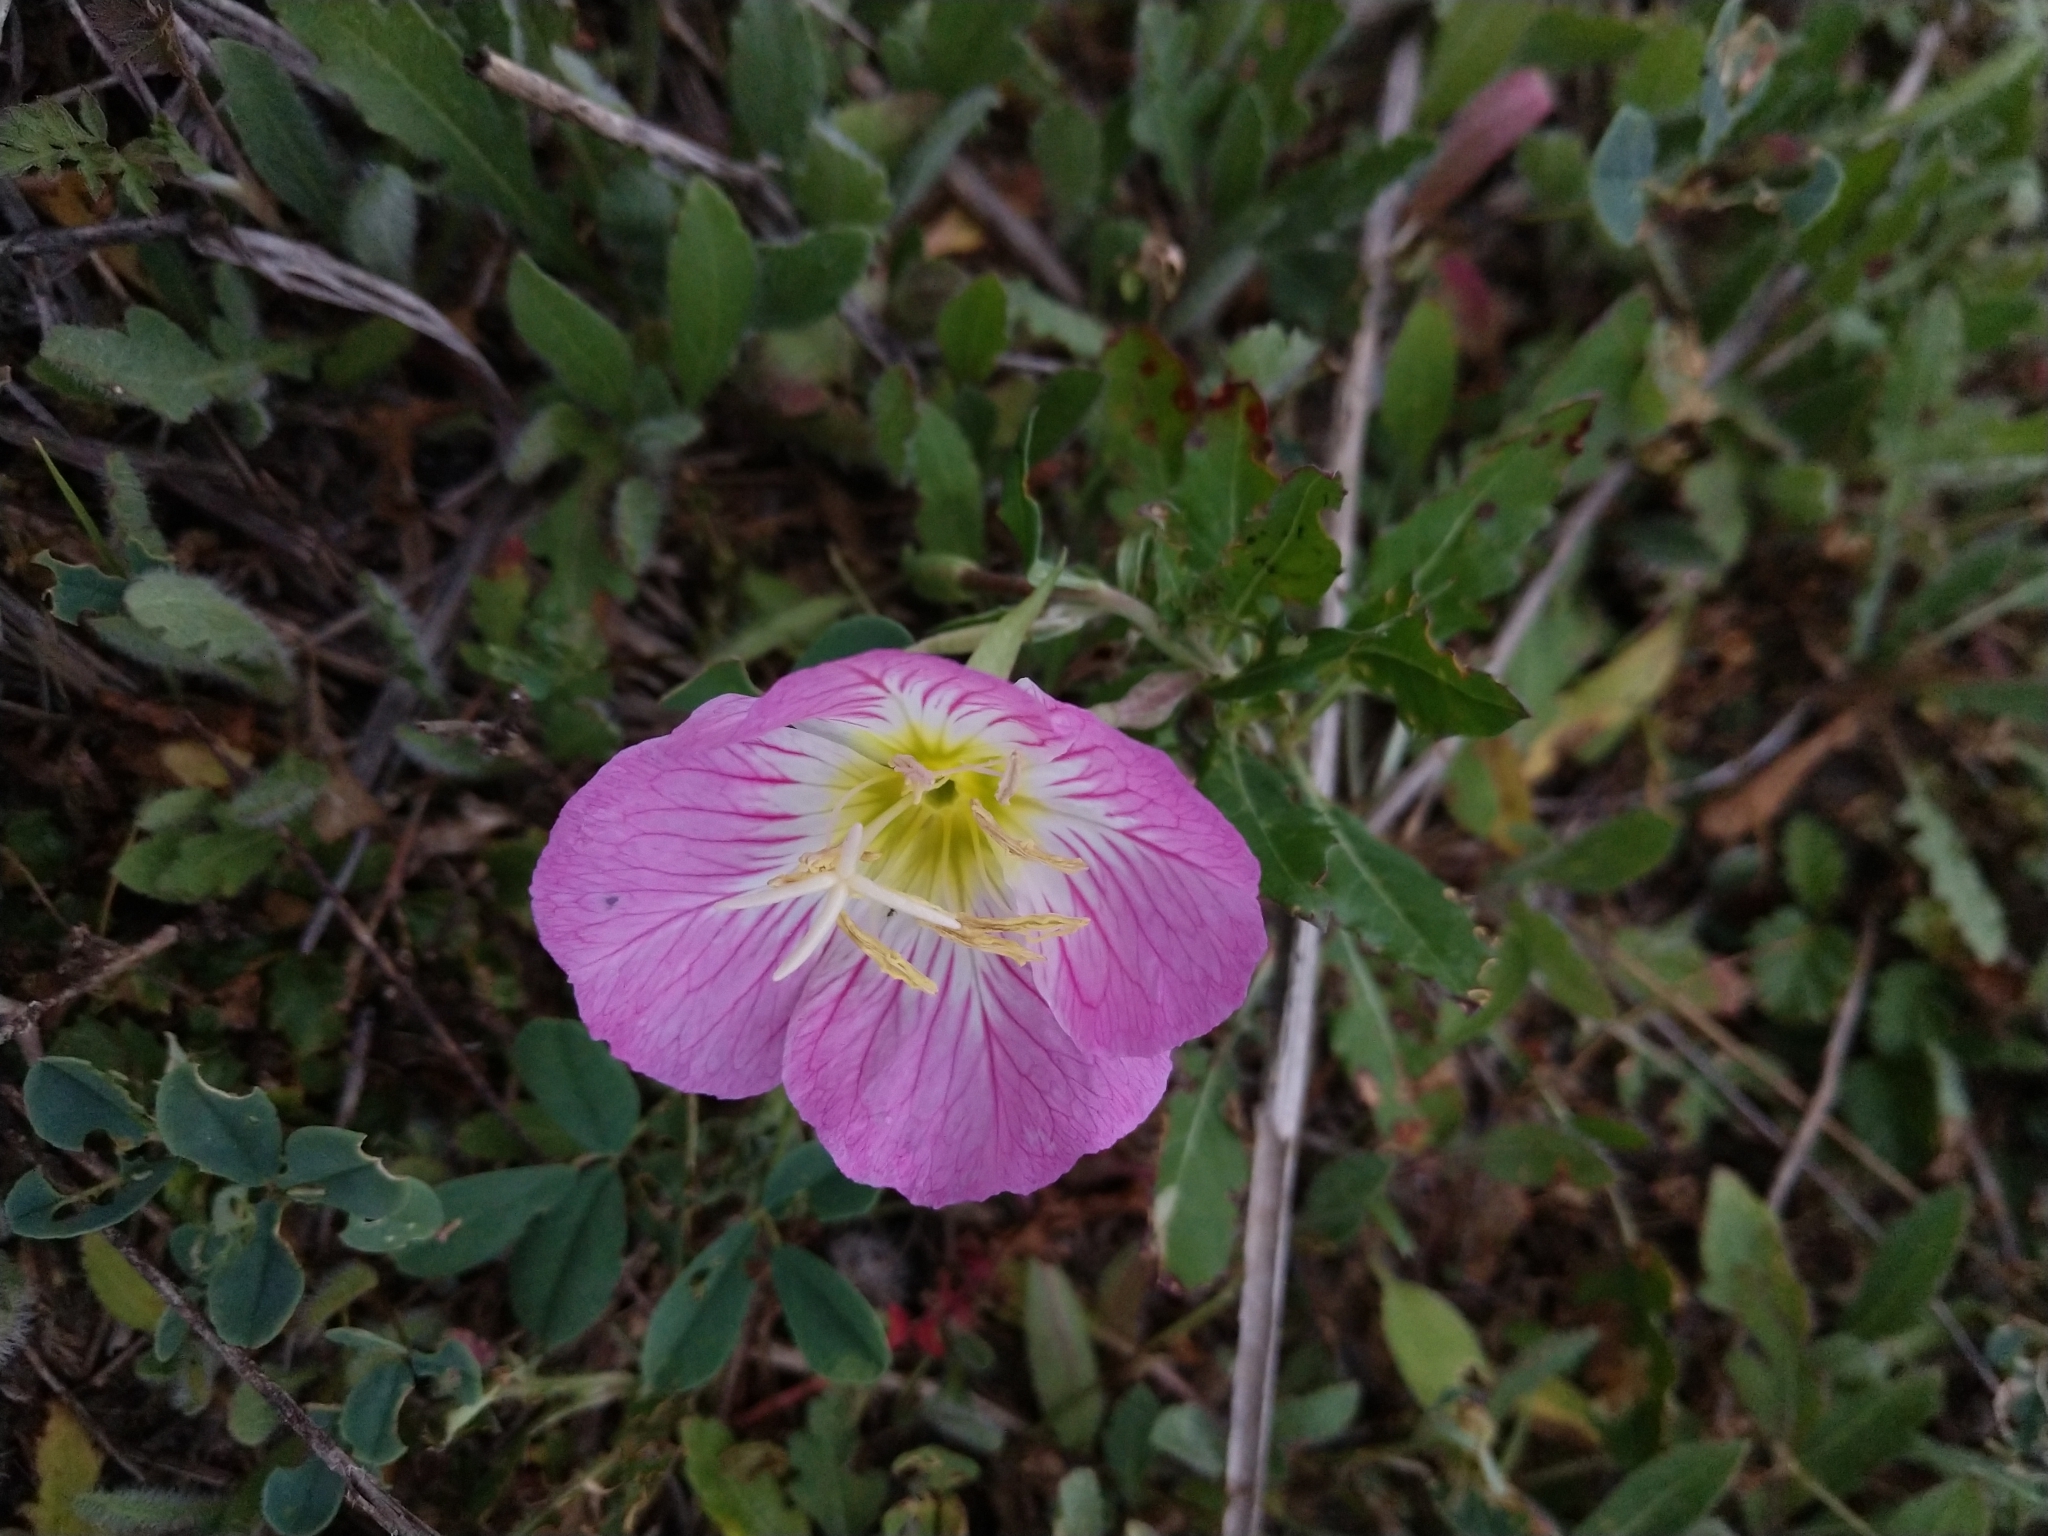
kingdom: Plantae
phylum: Tracheophyta
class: Magnoliopsida
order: Myrtales
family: Onagraceae
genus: Oenothera
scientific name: Oenothera speciosa
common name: White evening-primrose
